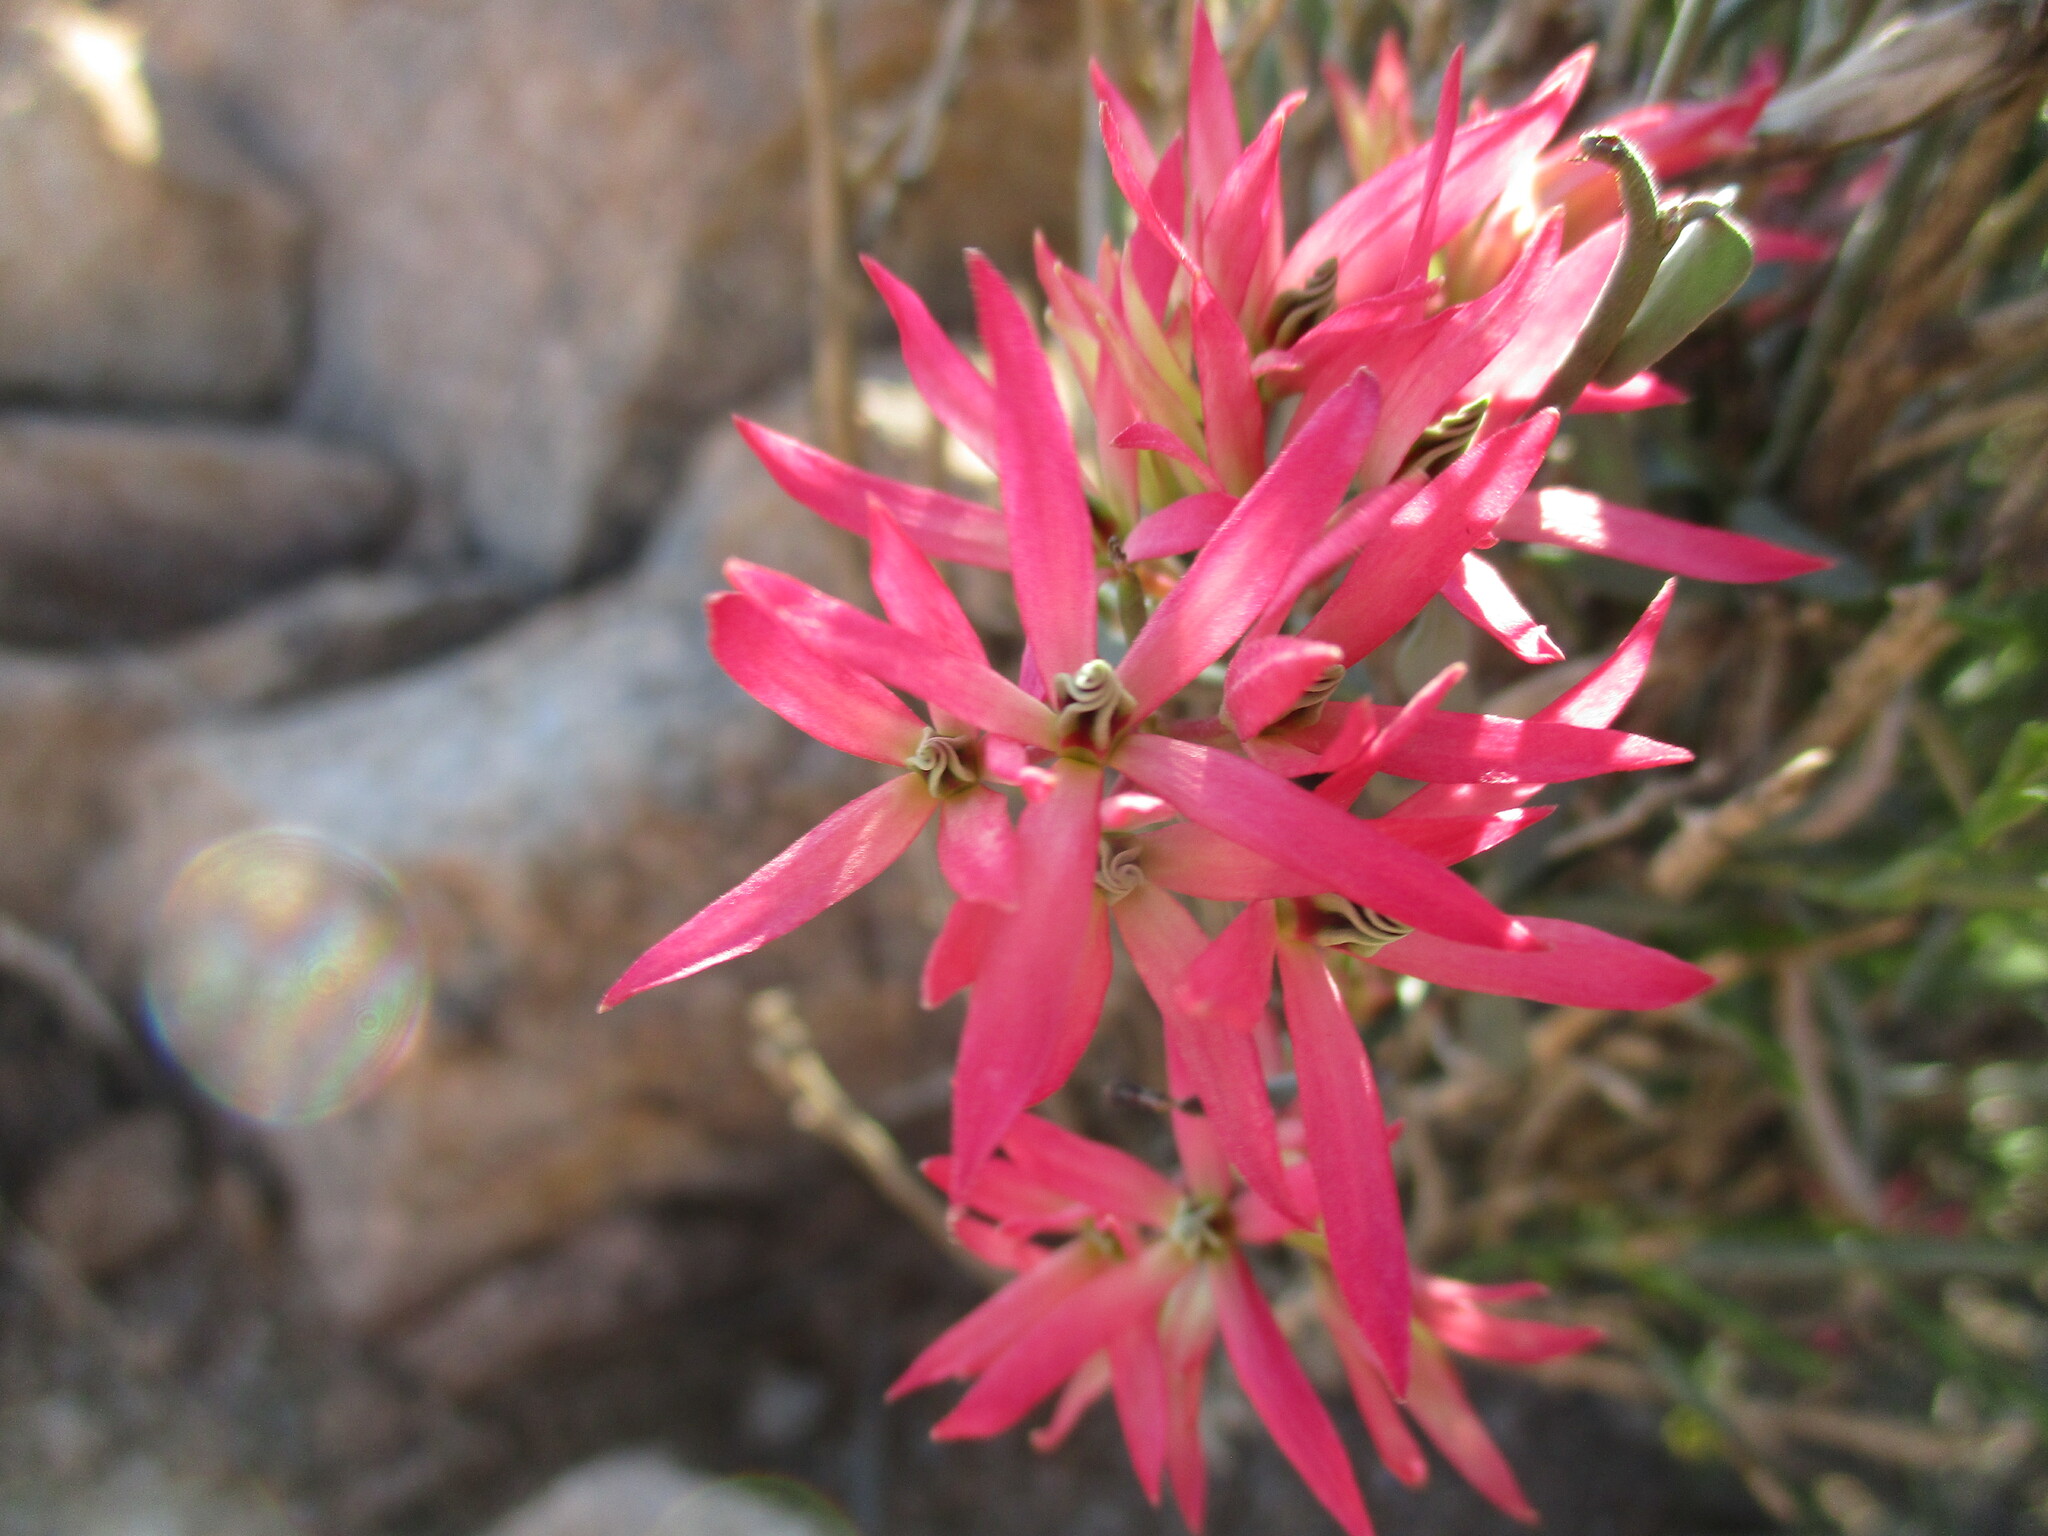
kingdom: Plantae
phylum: Tracheophyta
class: Magnoliopsida
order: Gentianales
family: Apocynaceae
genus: Microloma
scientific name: Microloma calycinum
